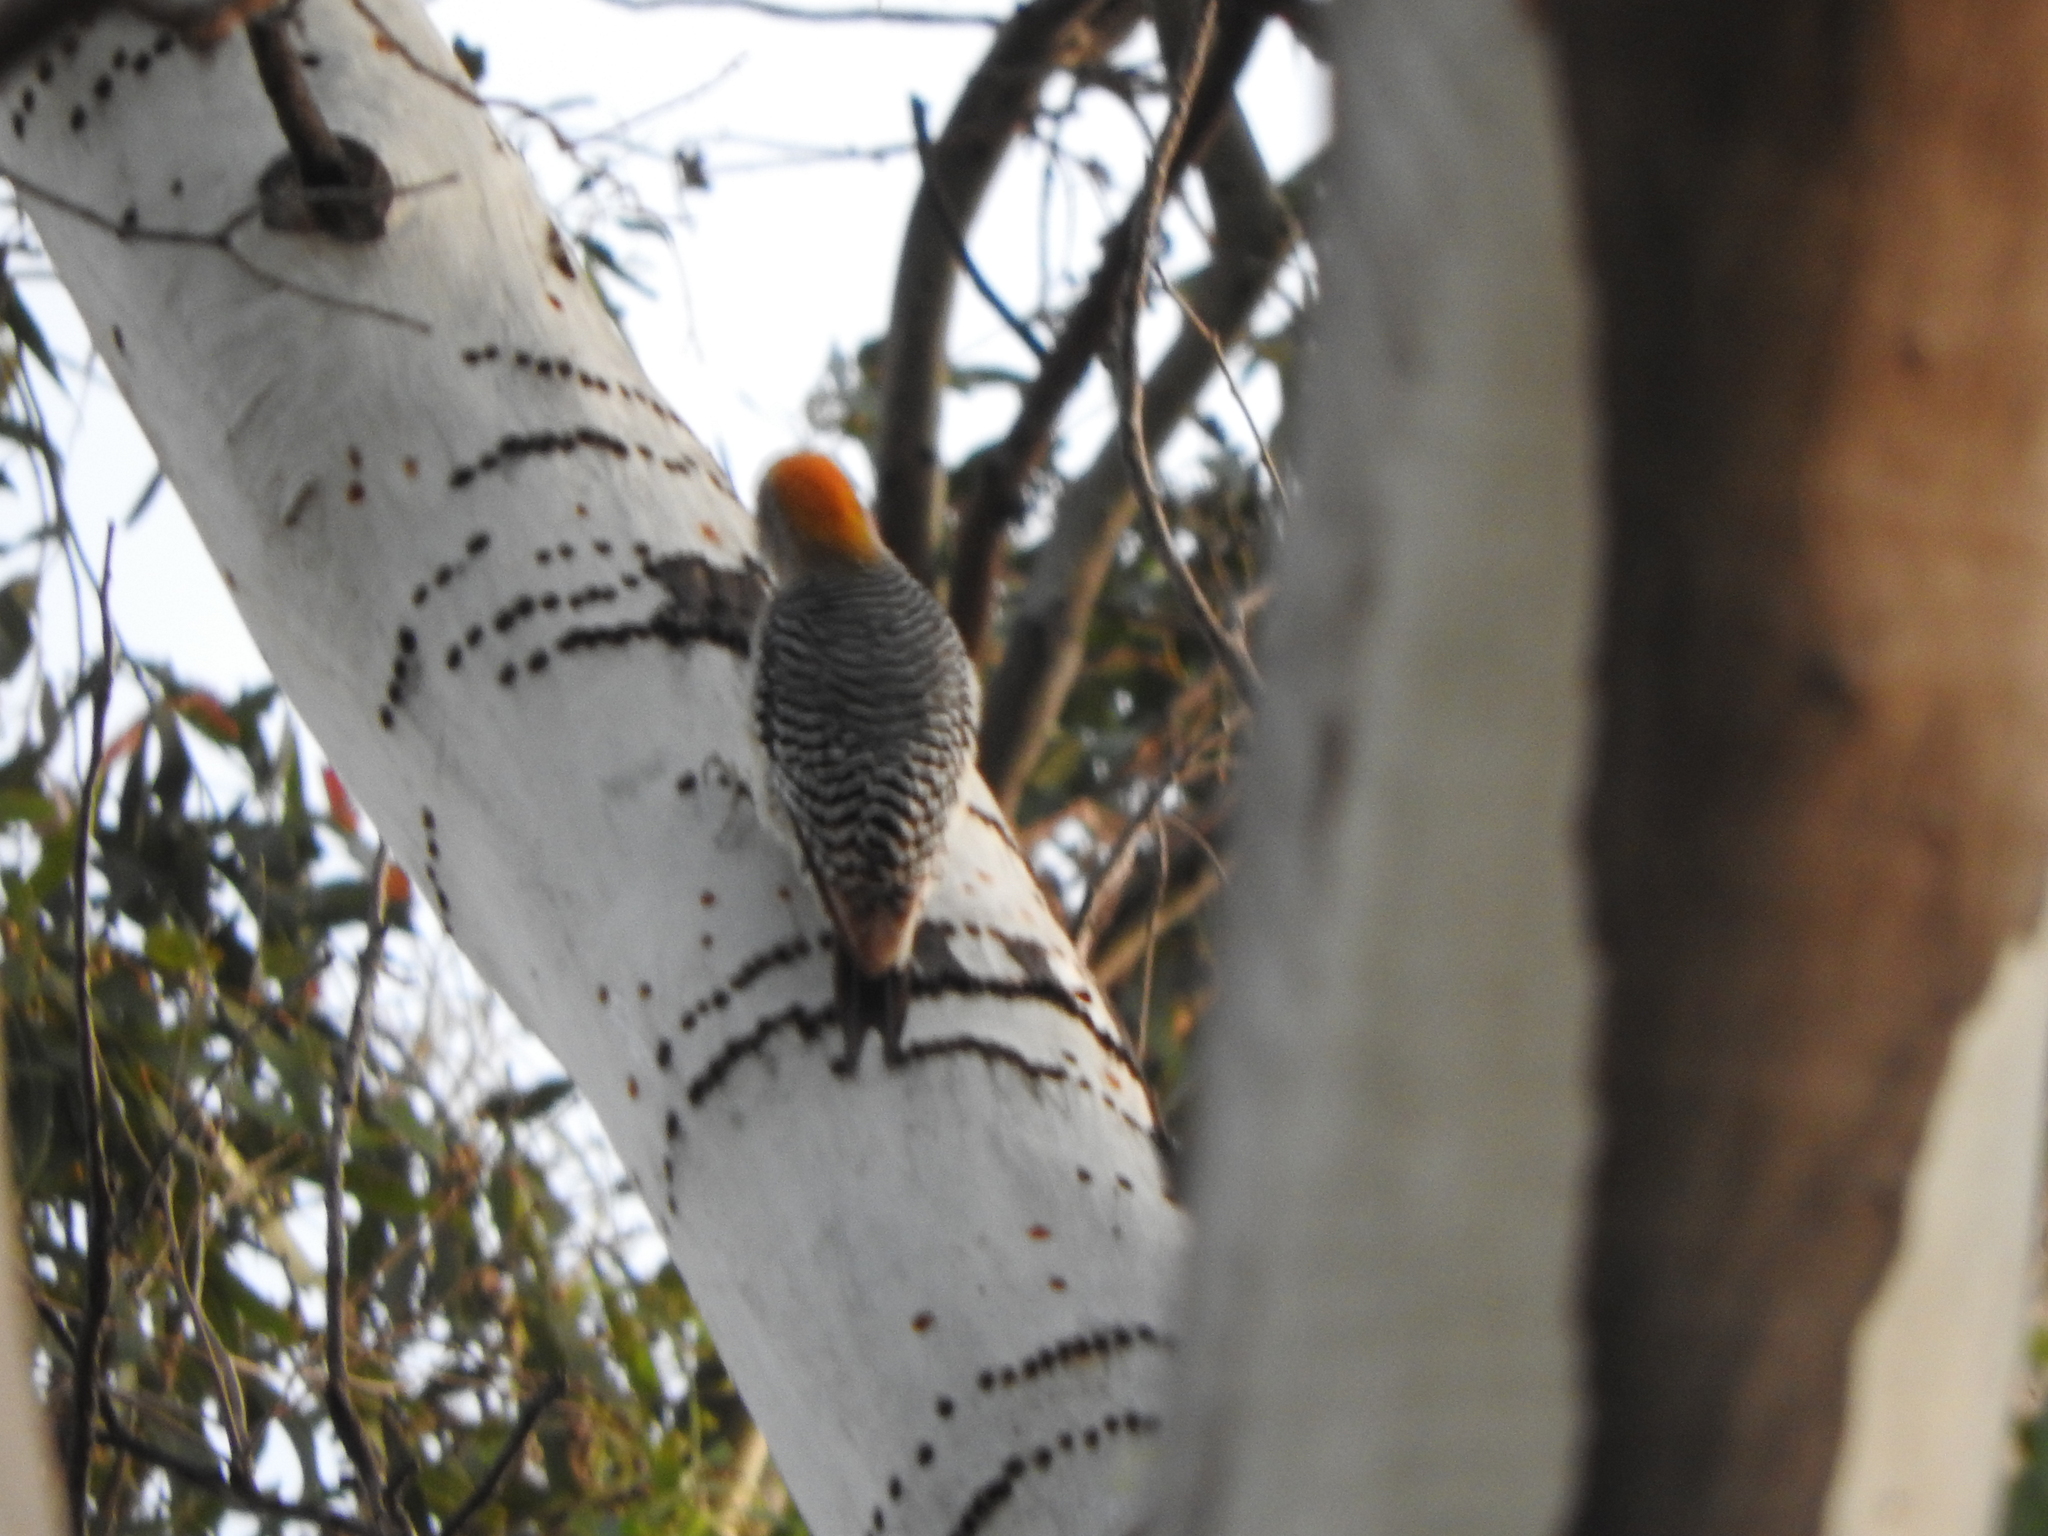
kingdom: Animalia
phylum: Chordata
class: Aves
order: Piciformes
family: Picidae
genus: Melanerpes
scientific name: Melanerpes aurifrons
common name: Golden-fronted woodpecker
